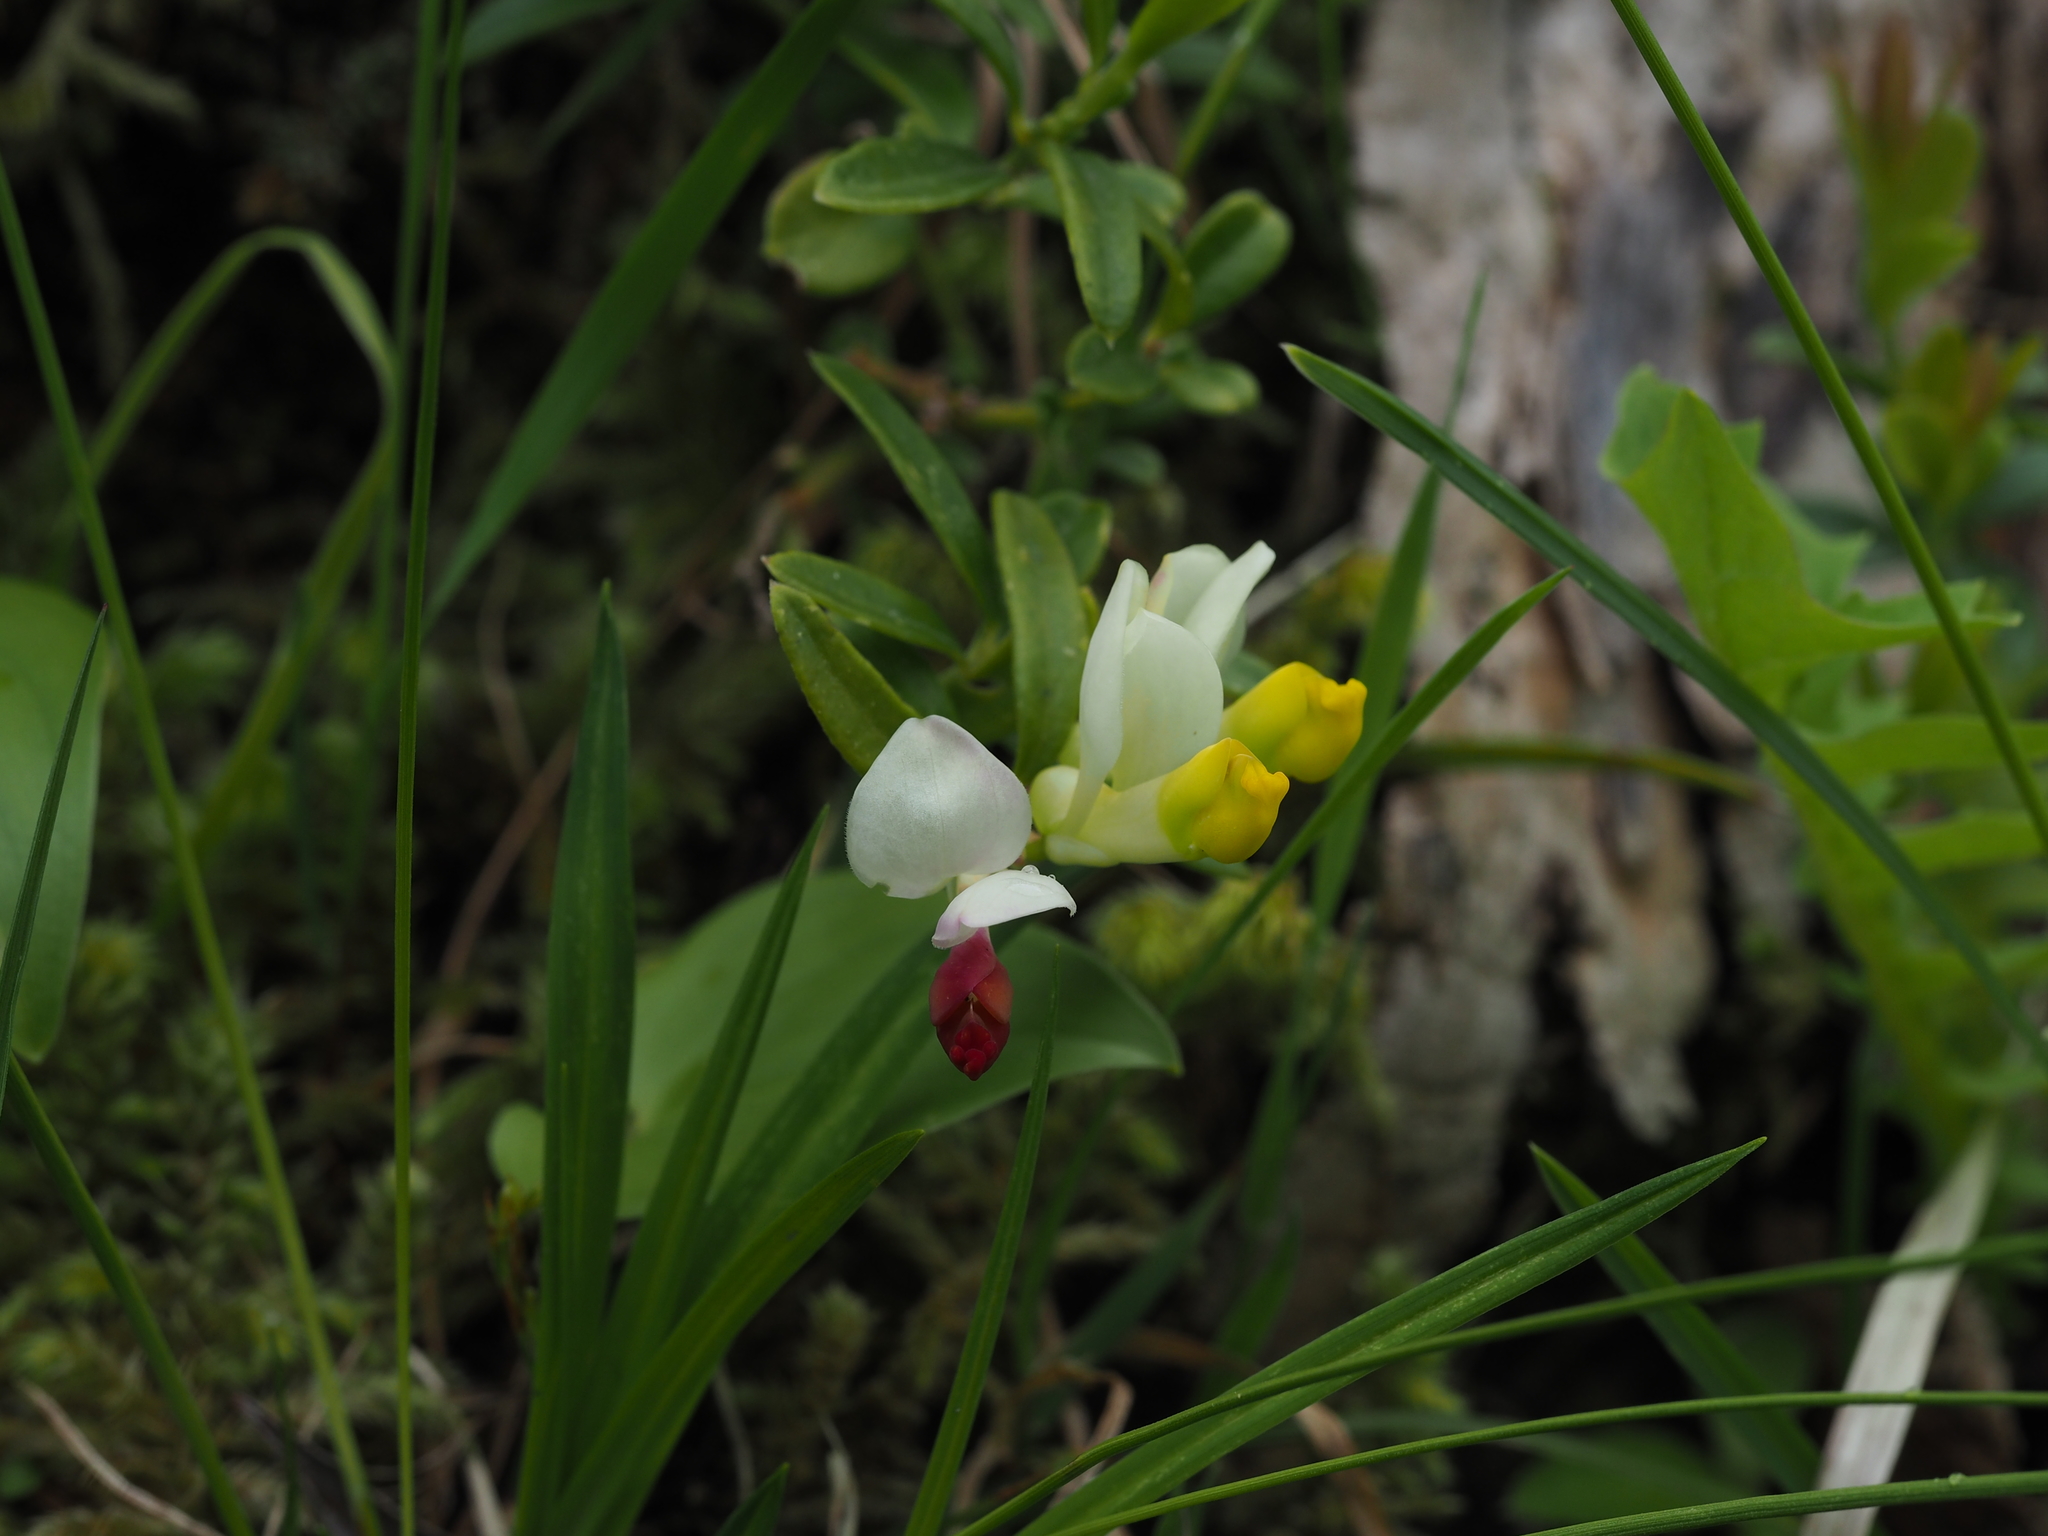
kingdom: Plantae
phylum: Tracheophyta
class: Magnoliopsida
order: Fabales
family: Polygalaceae
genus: Polygaloides
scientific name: Polygaloides chamaebuxus
